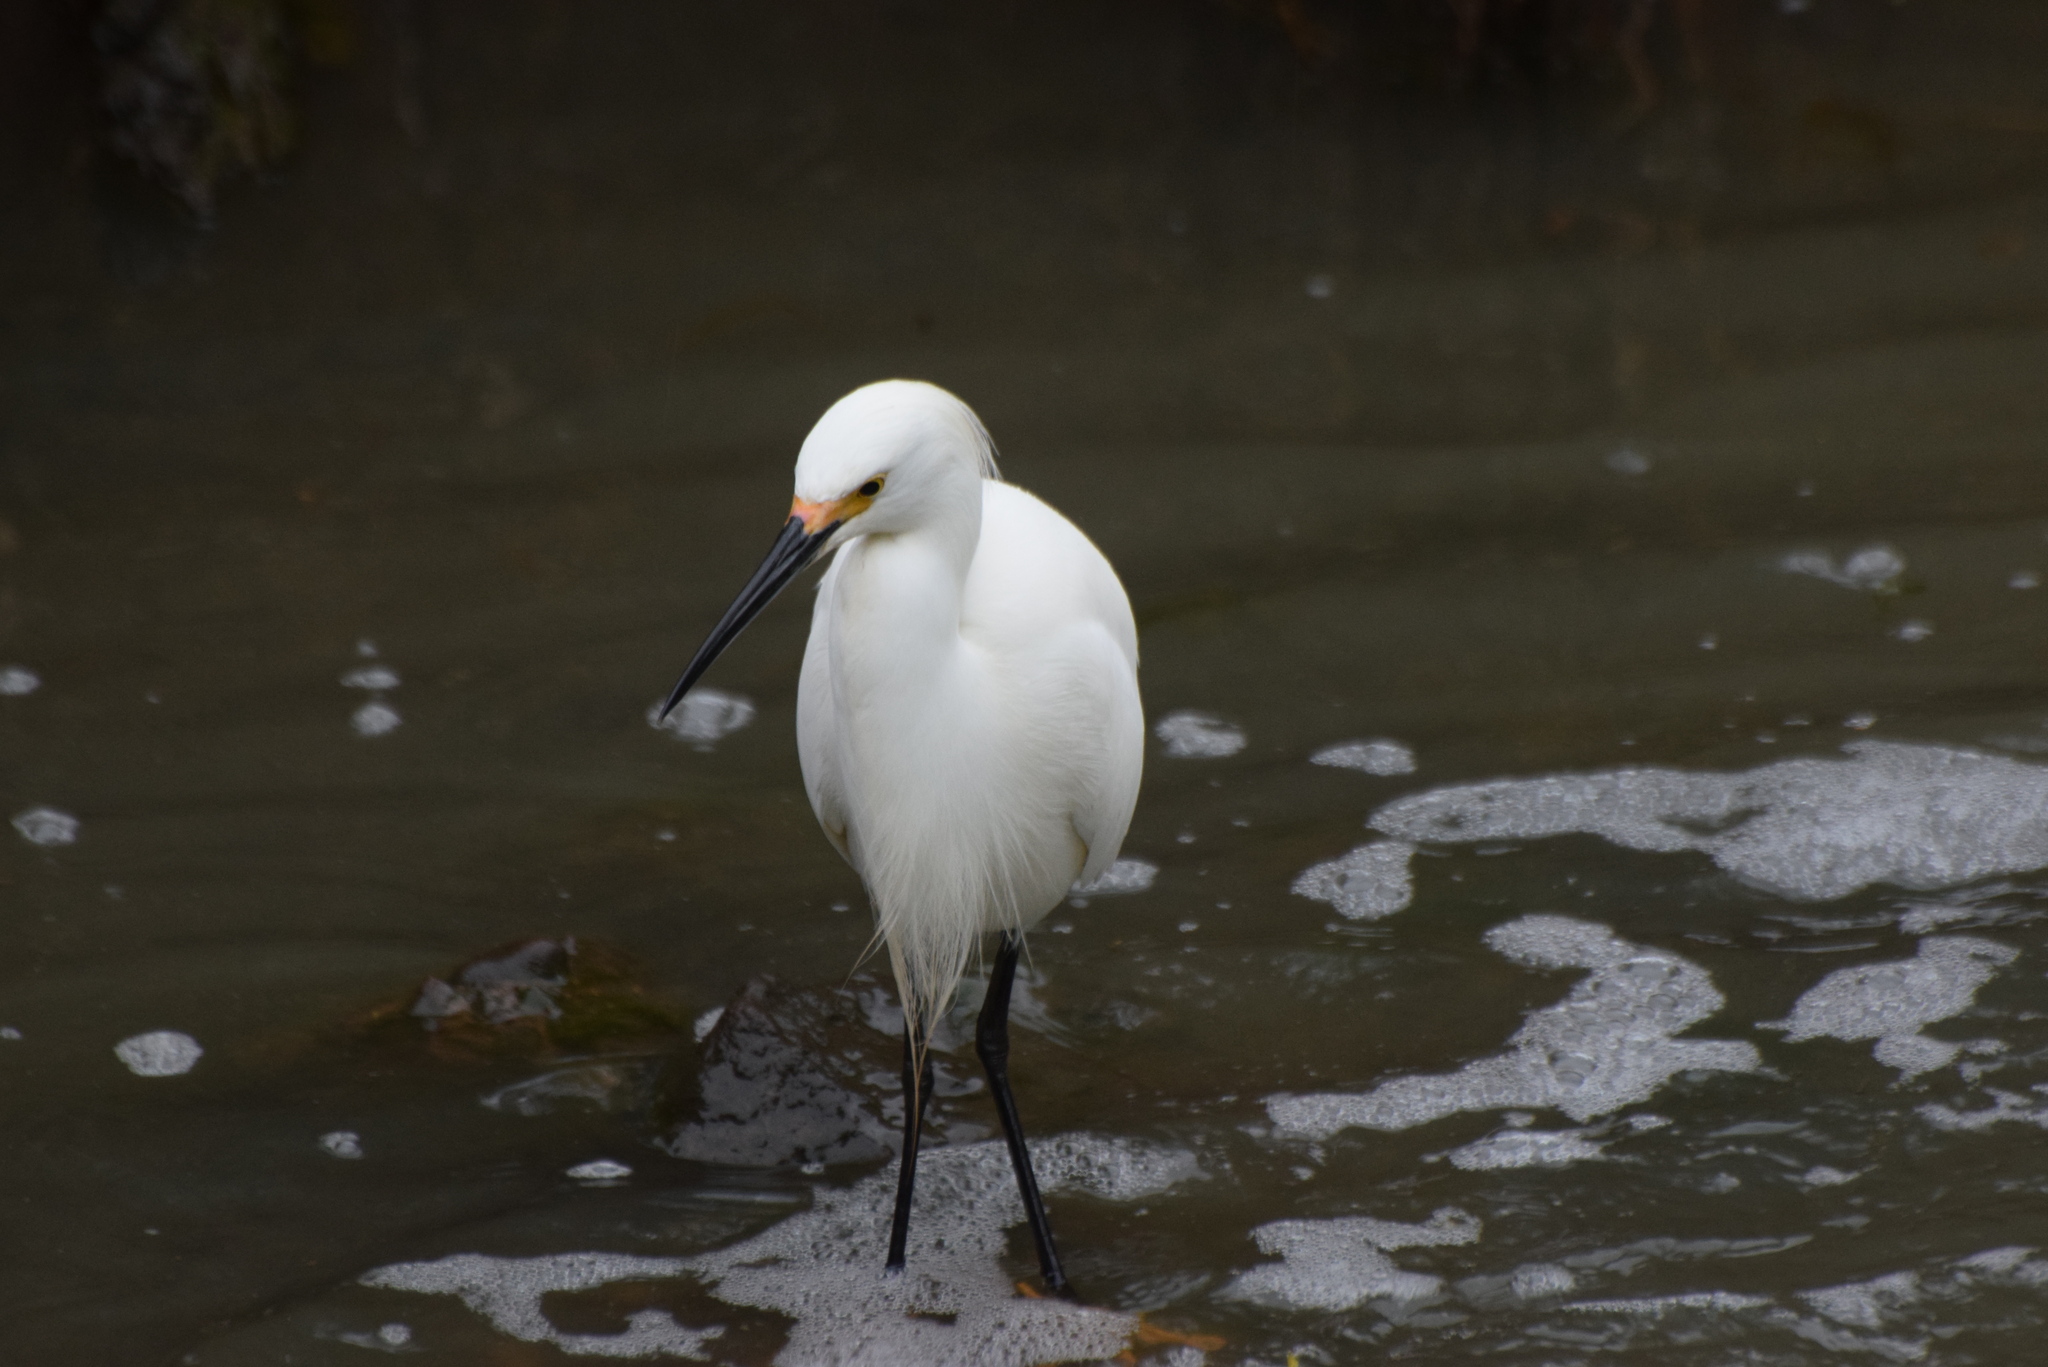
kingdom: Animalia
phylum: Chordata
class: Aves
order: Pelecaniformes
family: Ardeidae
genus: Egretta
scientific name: Egretta thula
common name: Snowy egret
